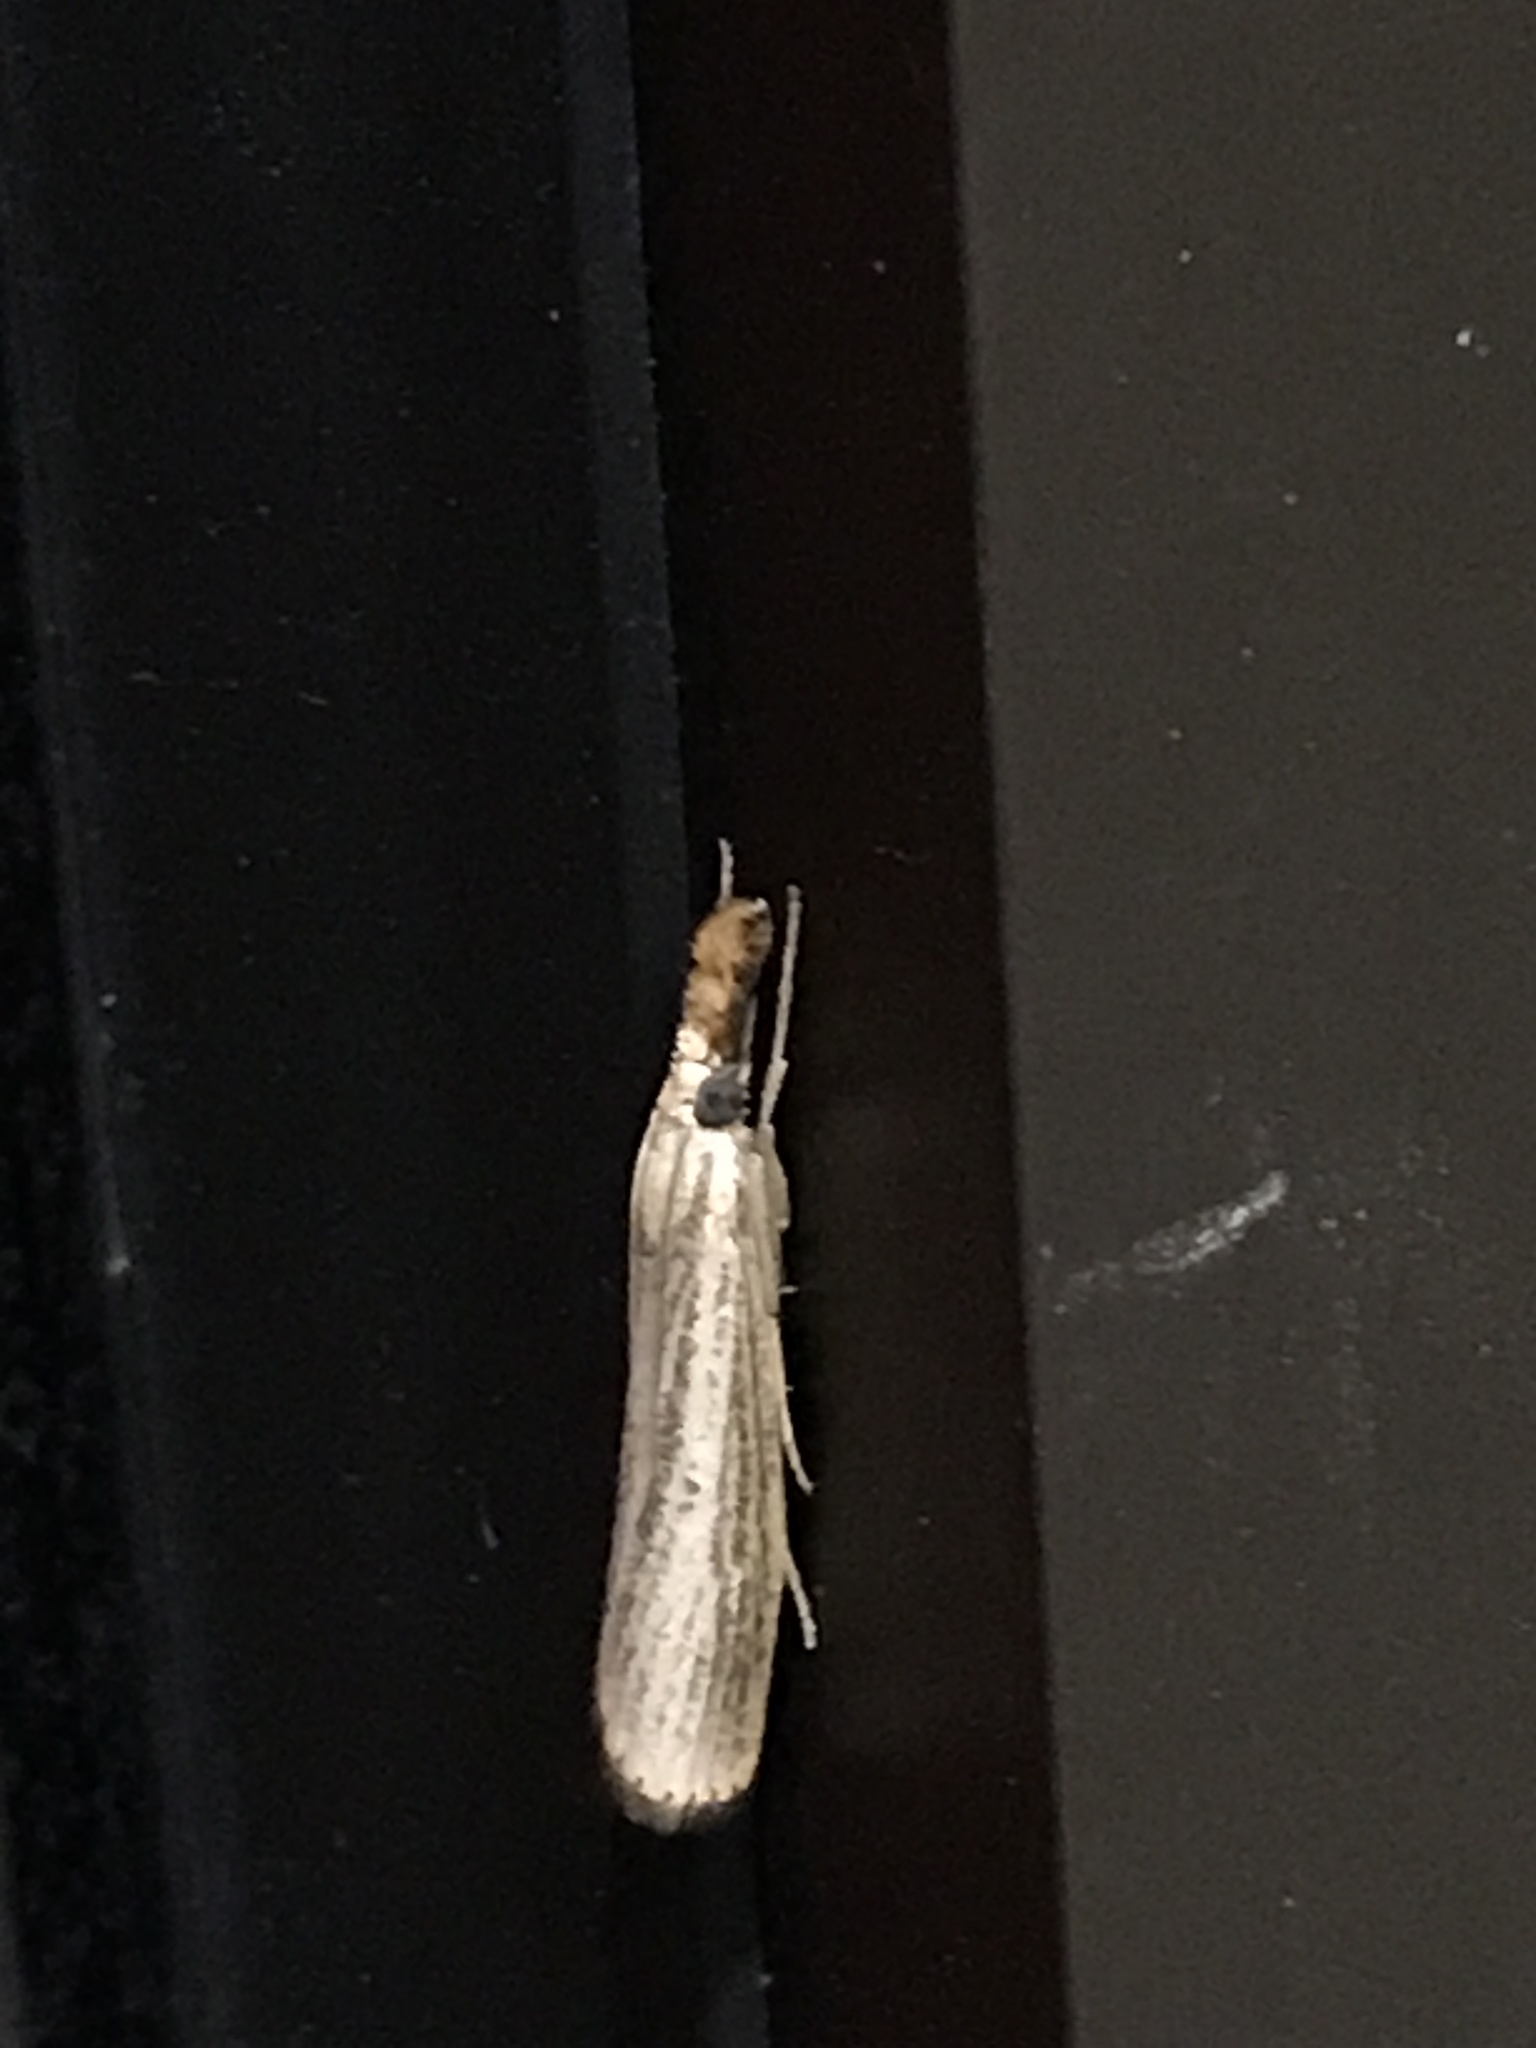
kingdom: Animalia
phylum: Arthropoda
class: Insecta
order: Lepidoptera
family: Crambidae
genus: Agriphila
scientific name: Agriphila vulgivagellus
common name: Vagabond crambus moth
